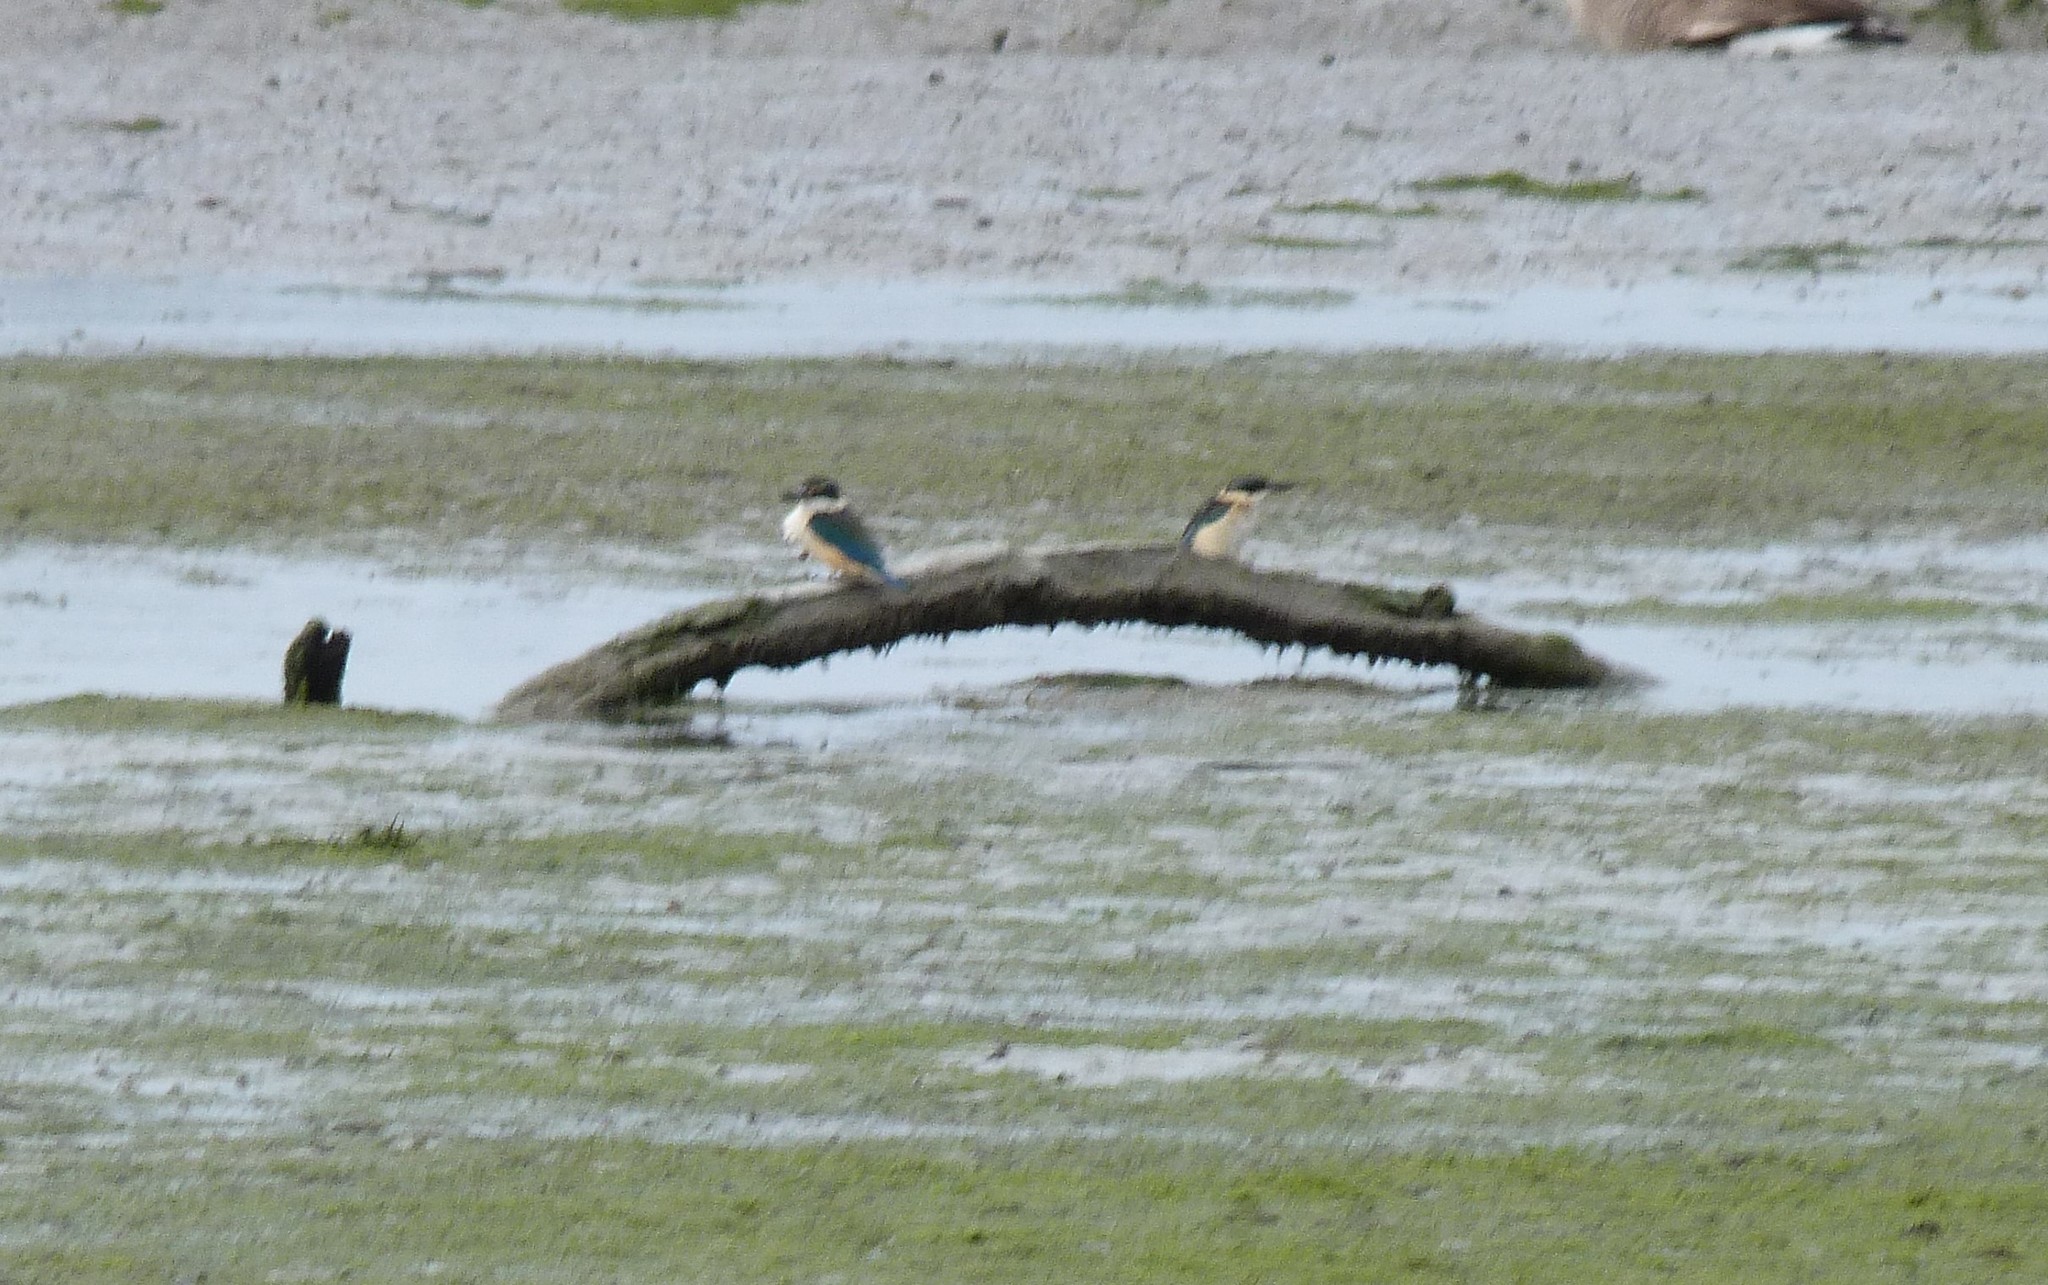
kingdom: Animalia
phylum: Chordata
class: Aves
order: Coraciiformes
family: Alcedinidae
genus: Todiramphus
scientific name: Todiramphus sanctus
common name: Sacred kingfisher
